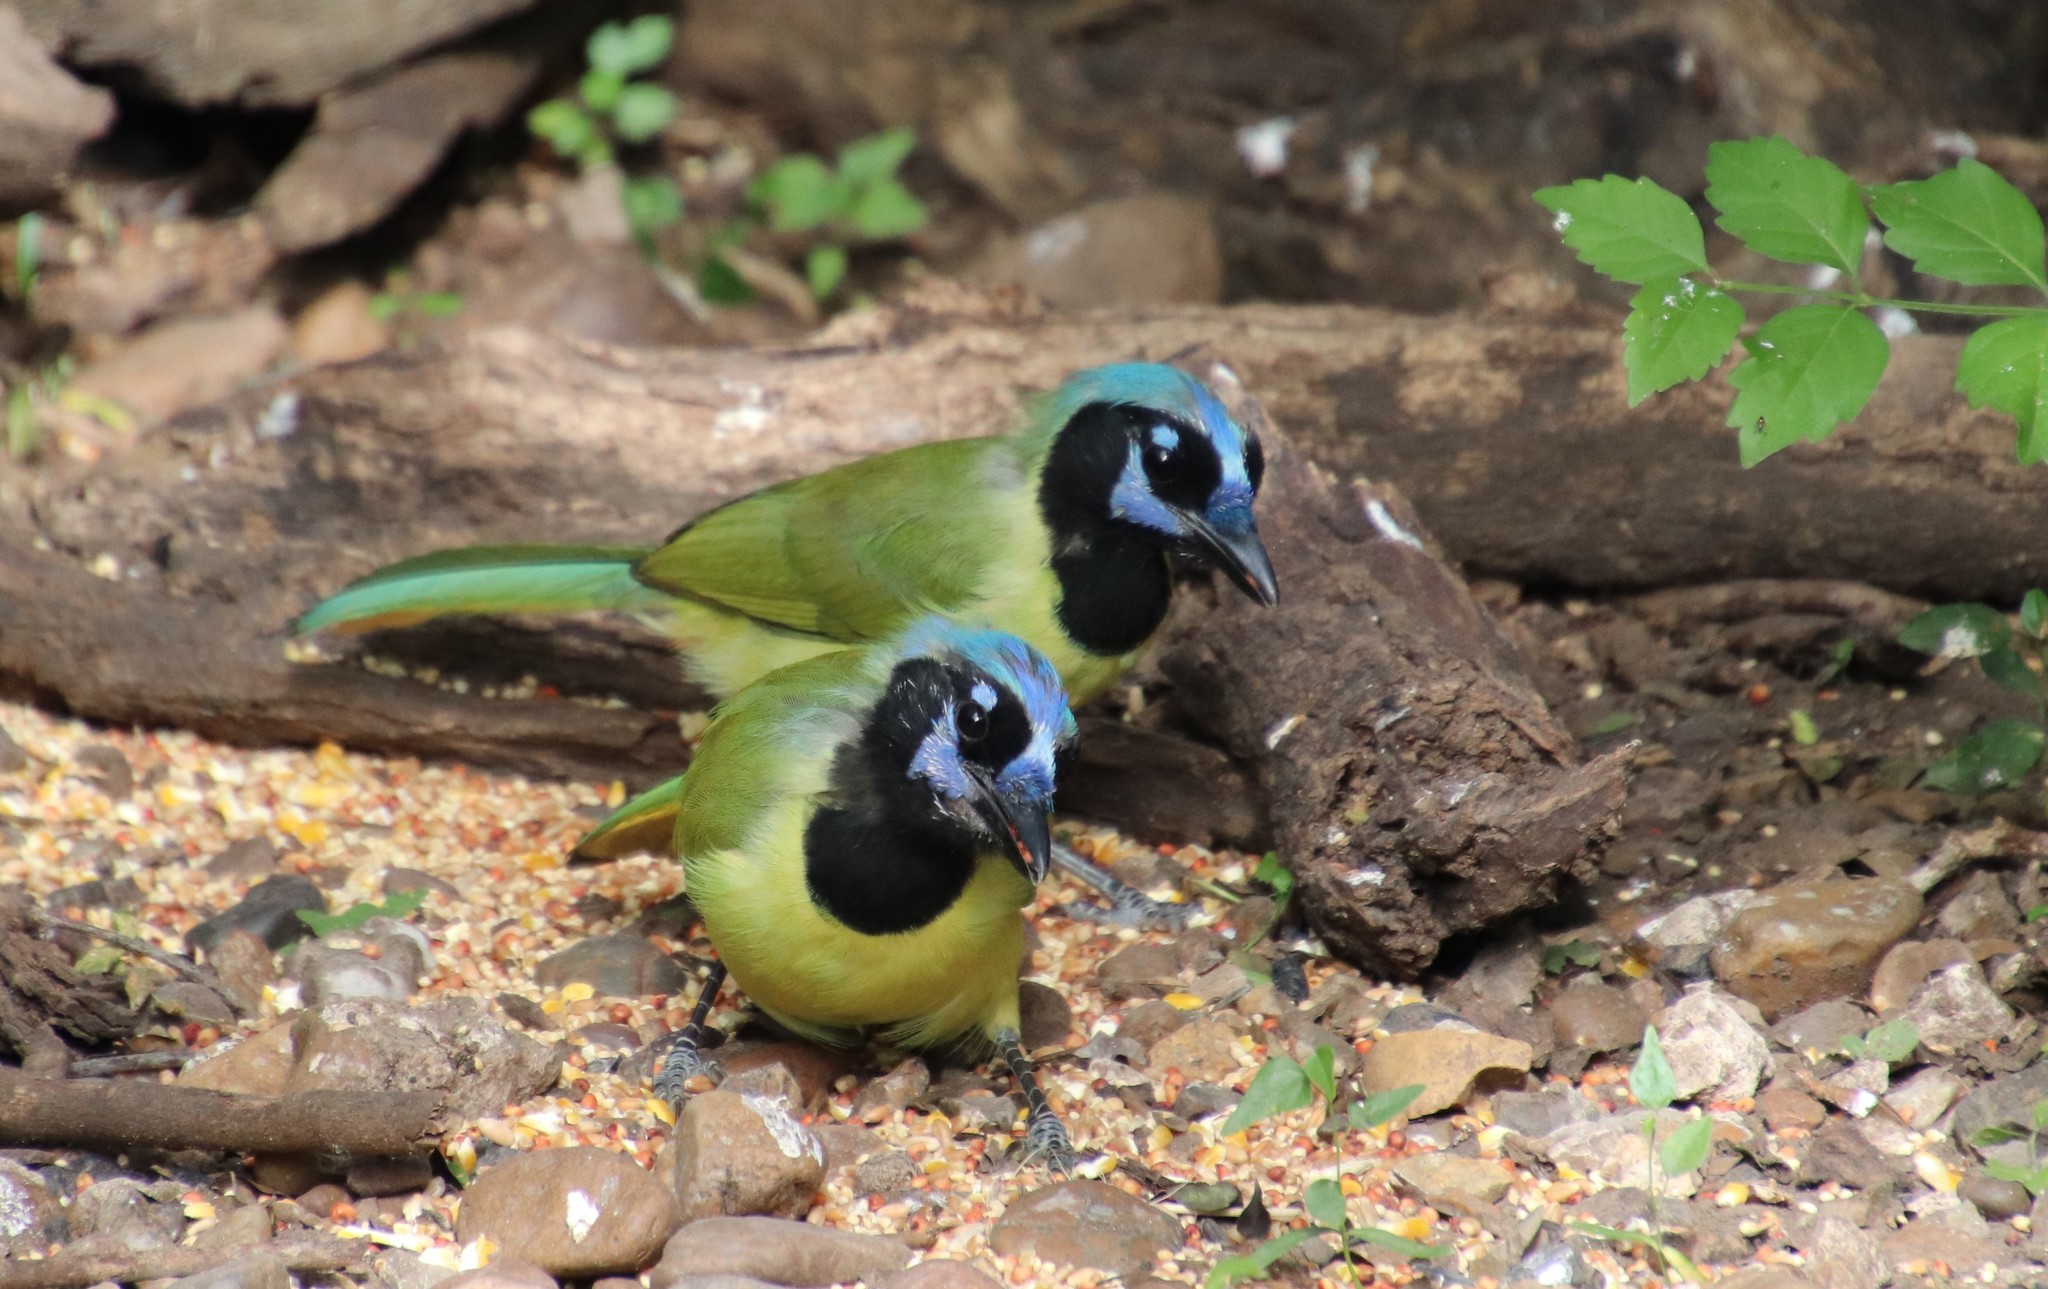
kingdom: Animalia
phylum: Chordata
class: Aves
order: Passeriformes
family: Corvidae
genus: Cyanocorax
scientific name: Cyanocorax yncas
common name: Green jay
